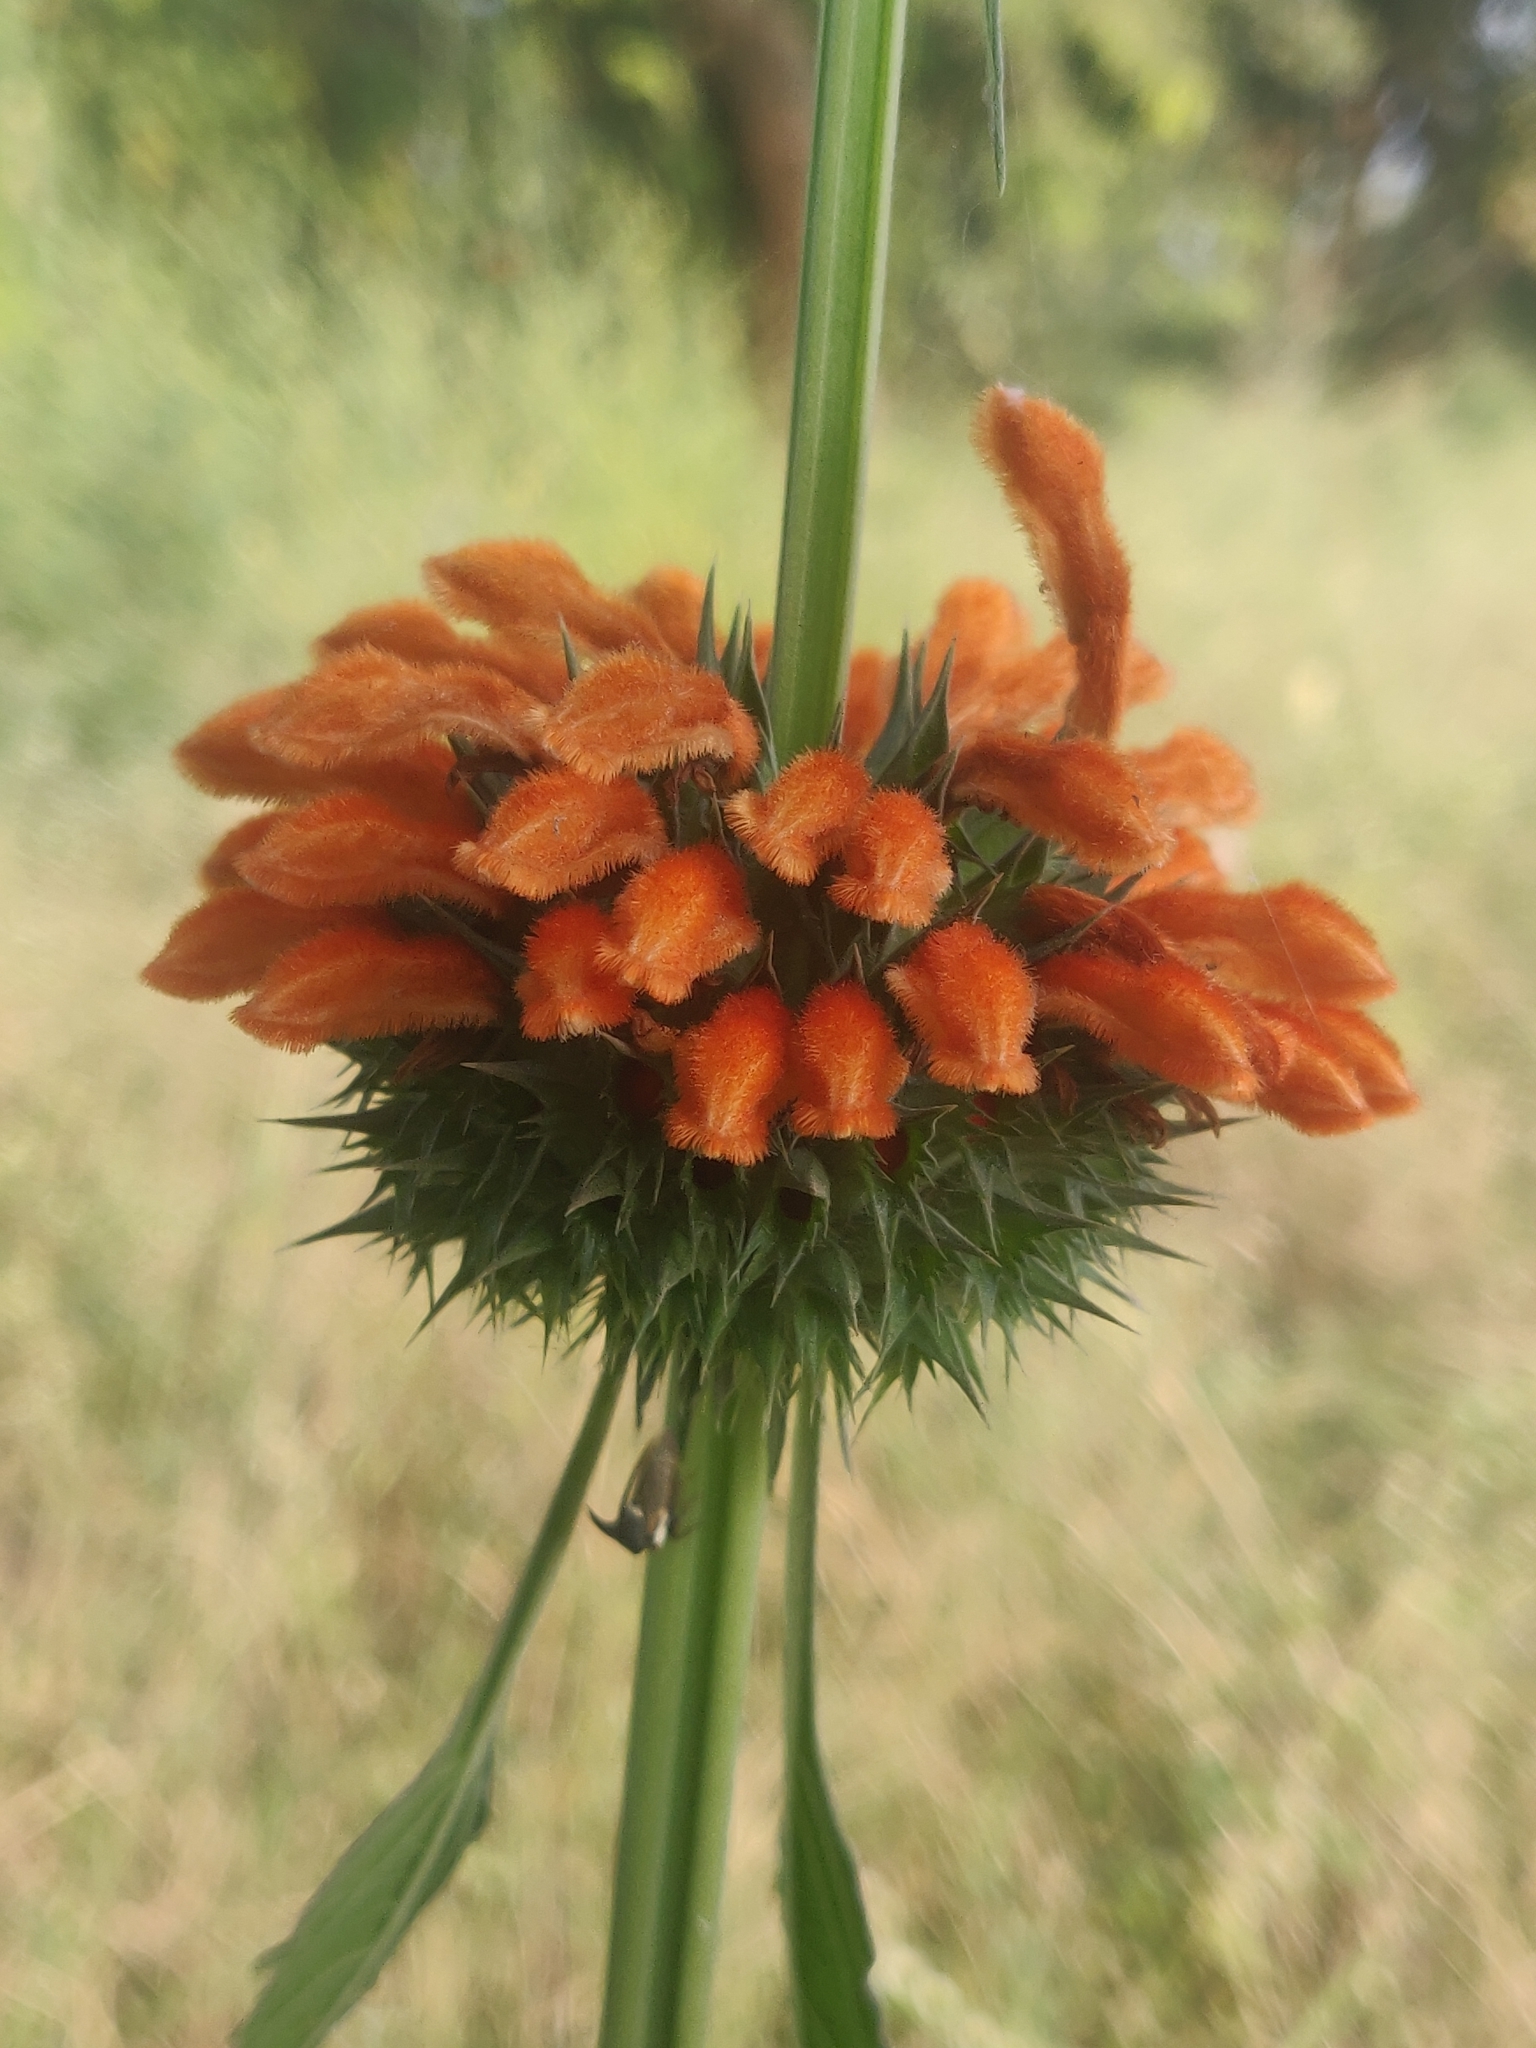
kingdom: Plantae
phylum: Tracheophyta
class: Magnoliopsida
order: Lamiales
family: Lamiaceae
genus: Leonotis
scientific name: Leonotis nepetifolia
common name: Christmas candlestick
